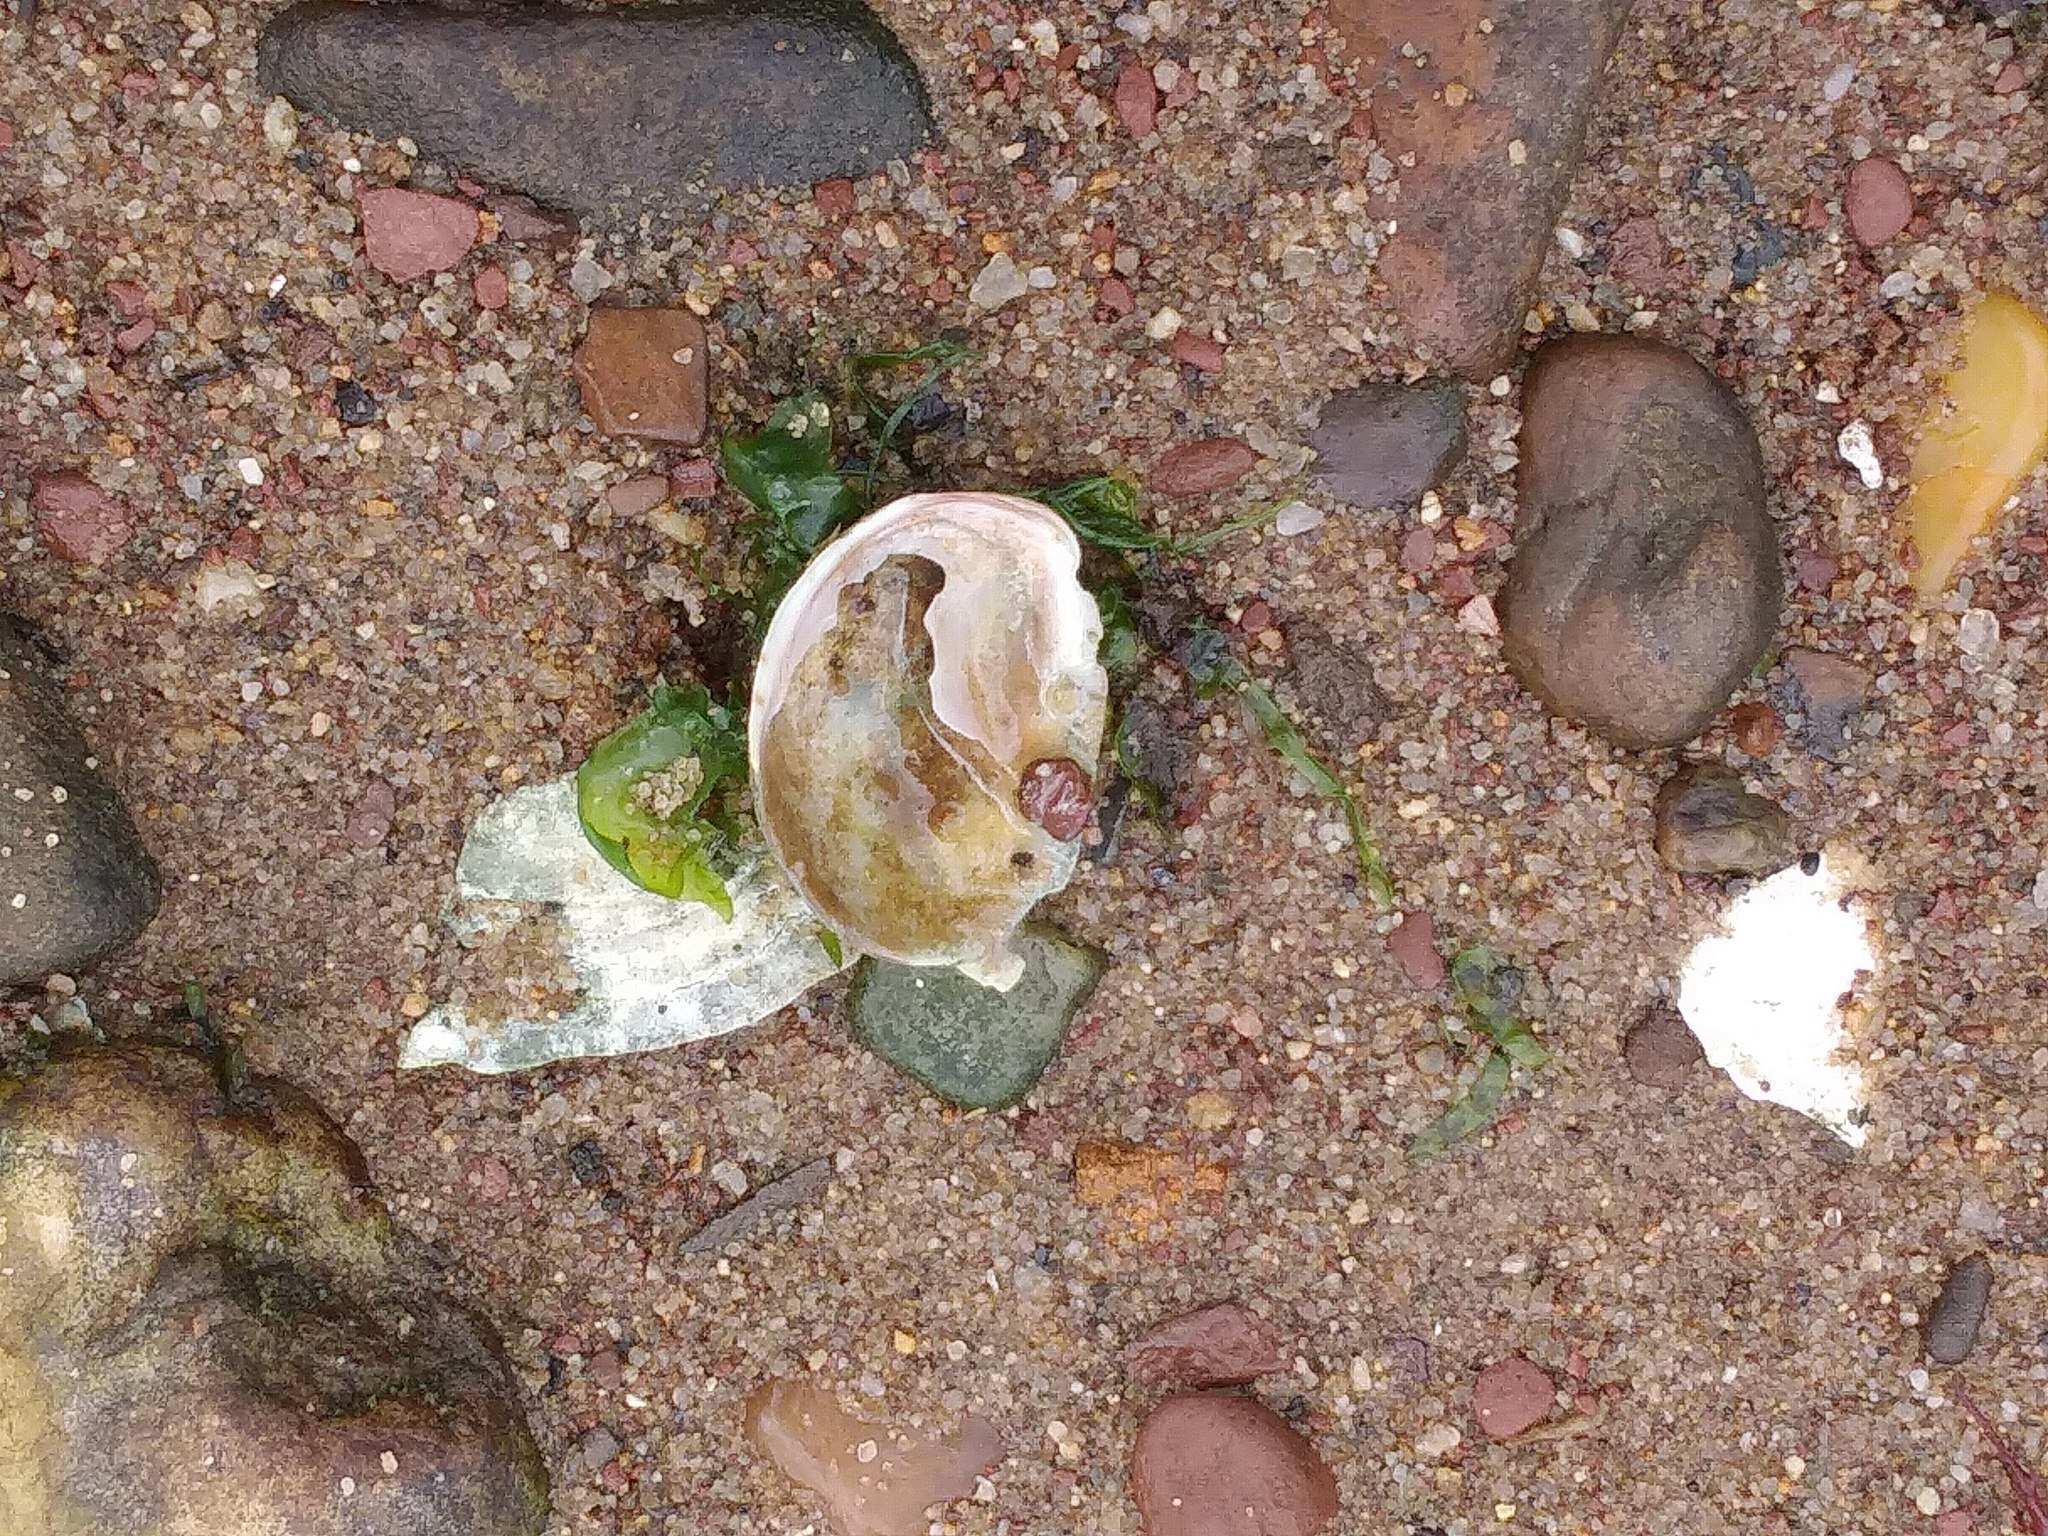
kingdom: Animalia
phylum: Mollusca
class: Gastropoda
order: Littorinimorpha
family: Calyptraeidae
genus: Crepidula
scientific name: Crepidula fornicata
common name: Slipper limpet
